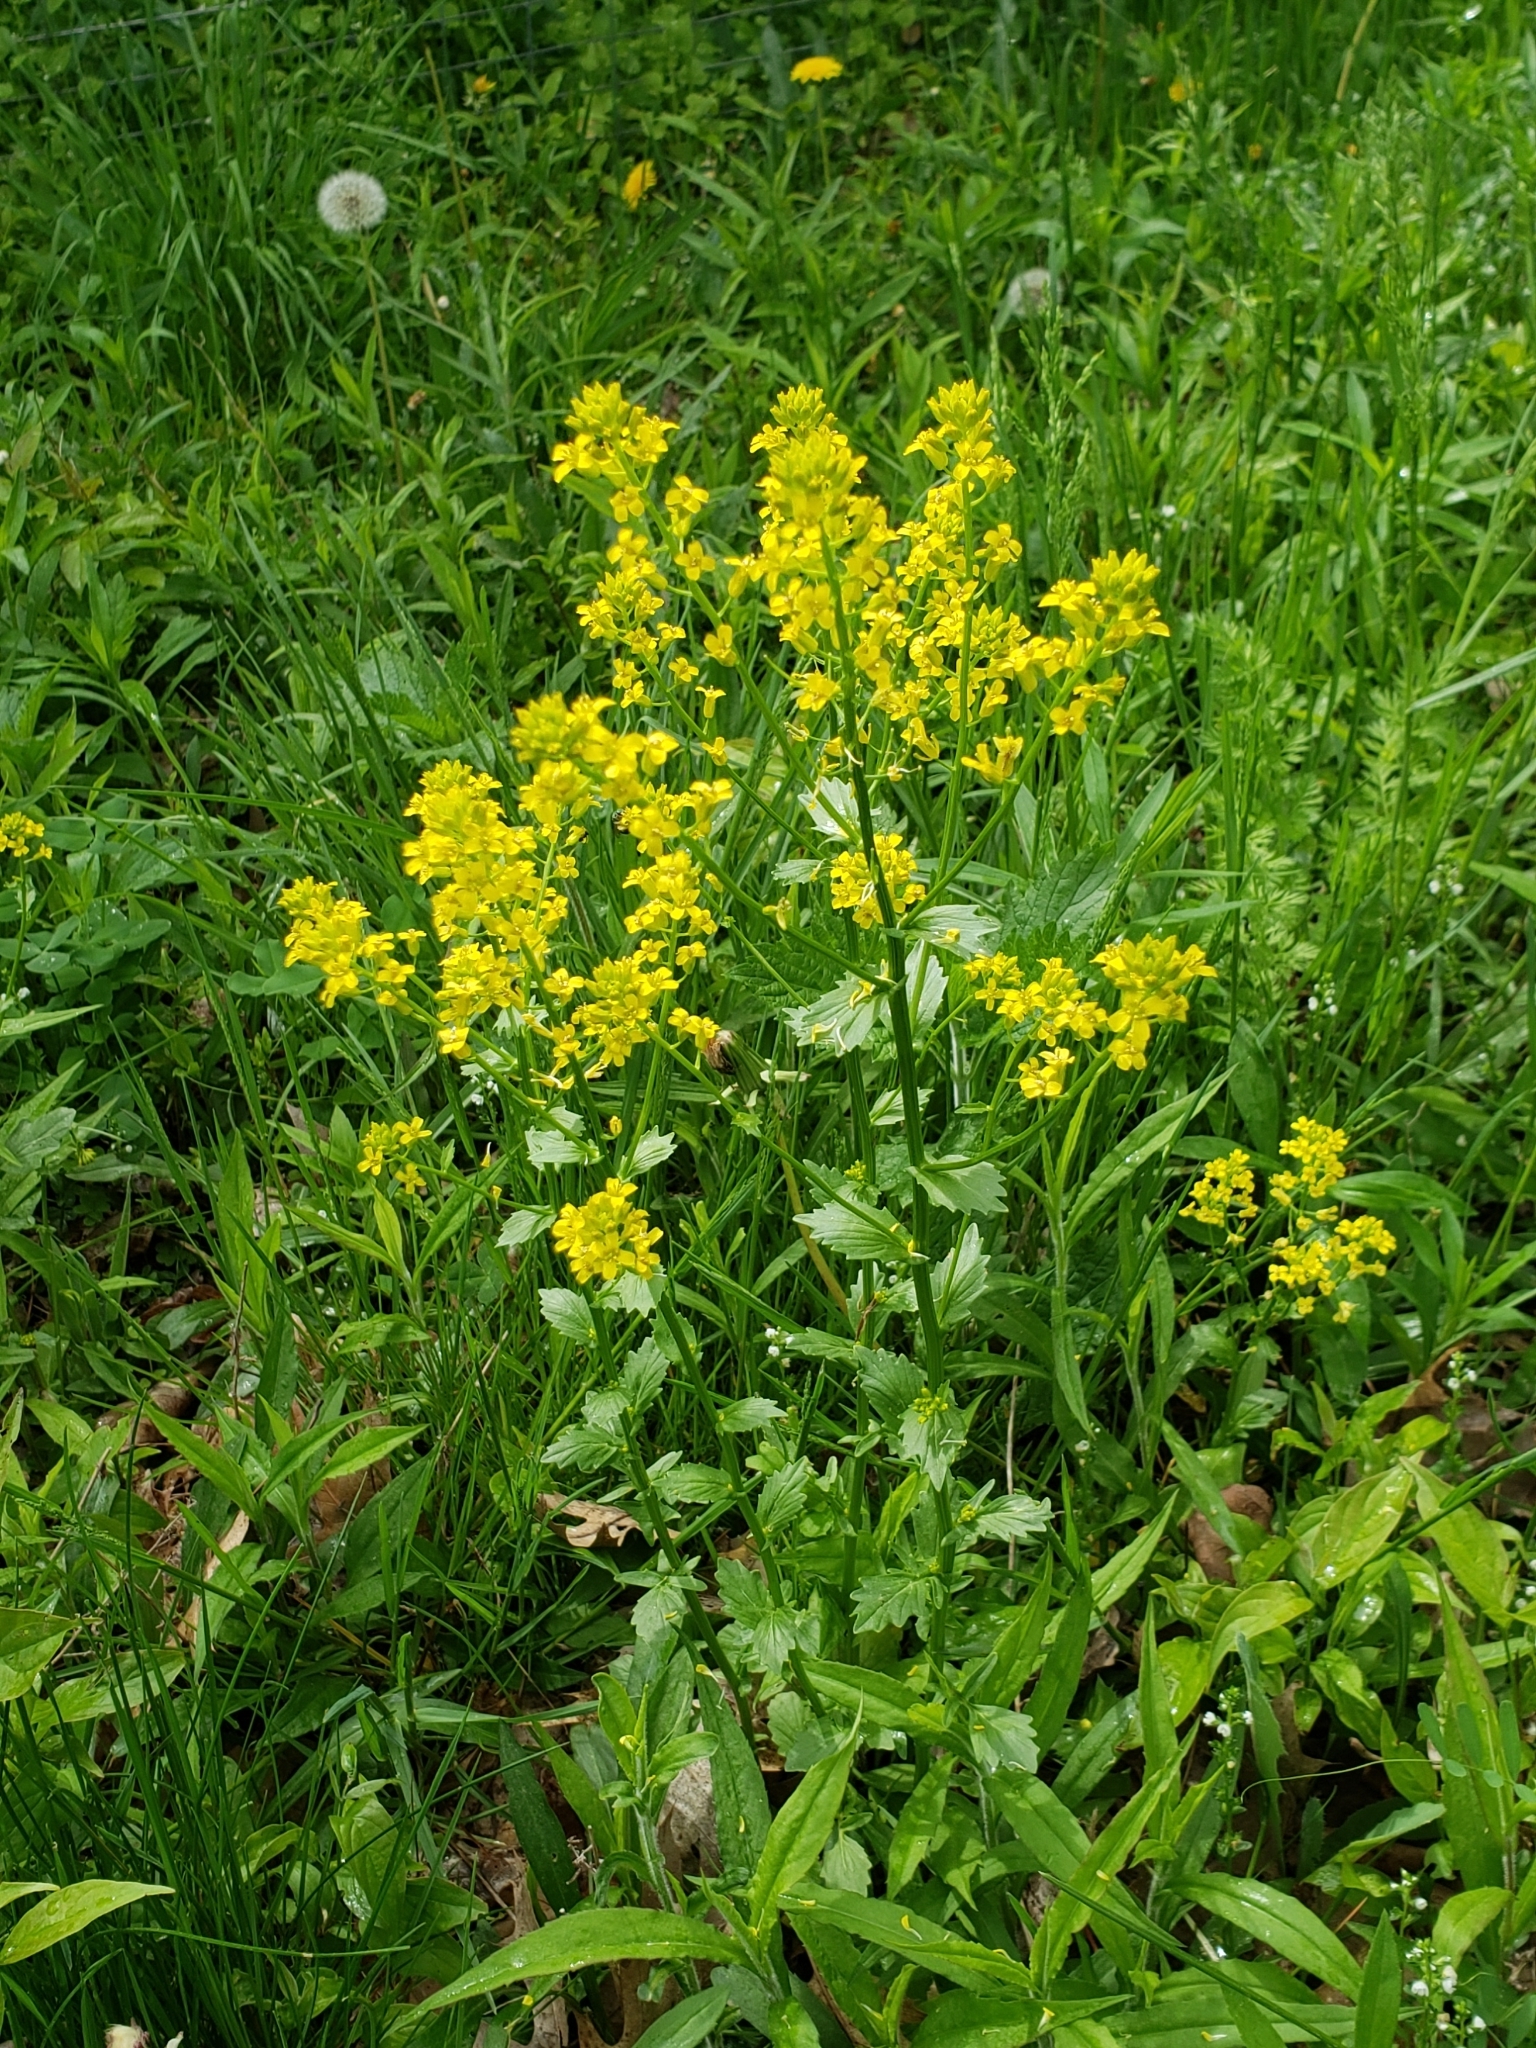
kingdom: Plantae
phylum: Tracheophyta
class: Magnoliopsida
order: Brassicales
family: Brassicaceae
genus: Barbarea
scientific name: Barbarea vulgaris
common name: Cressy-greens
